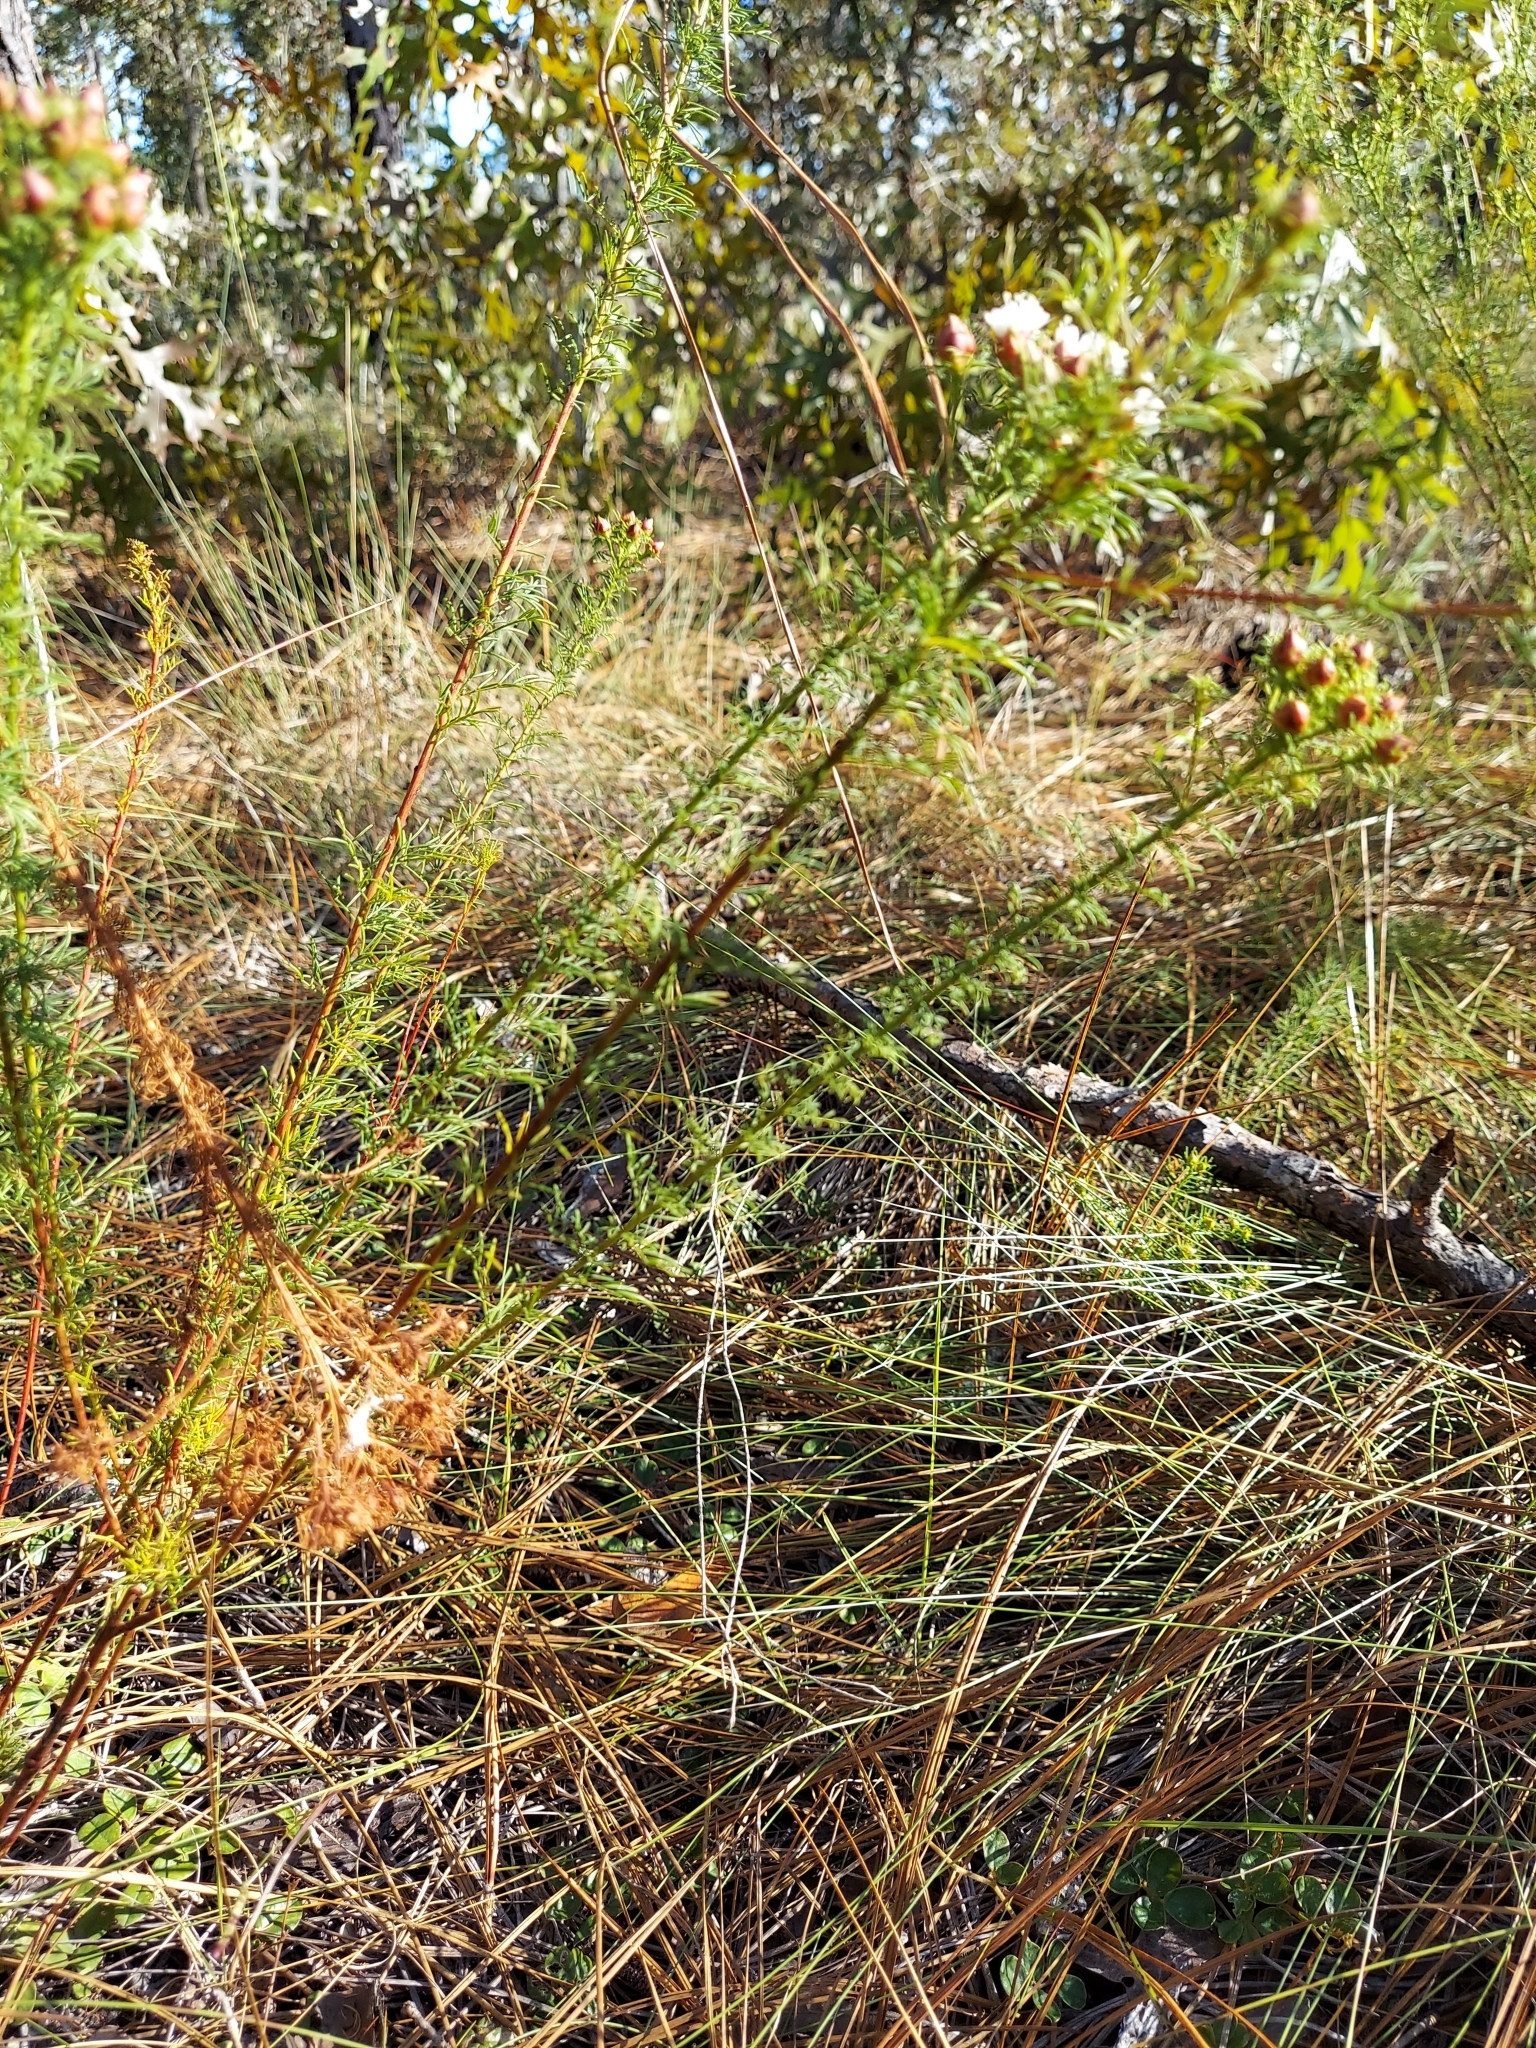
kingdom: Plantae
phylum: Tracheophyta
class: Magnoliopsida
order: Fabales
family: Fabaceae
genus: Dalea
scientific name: Dalea pinnata
